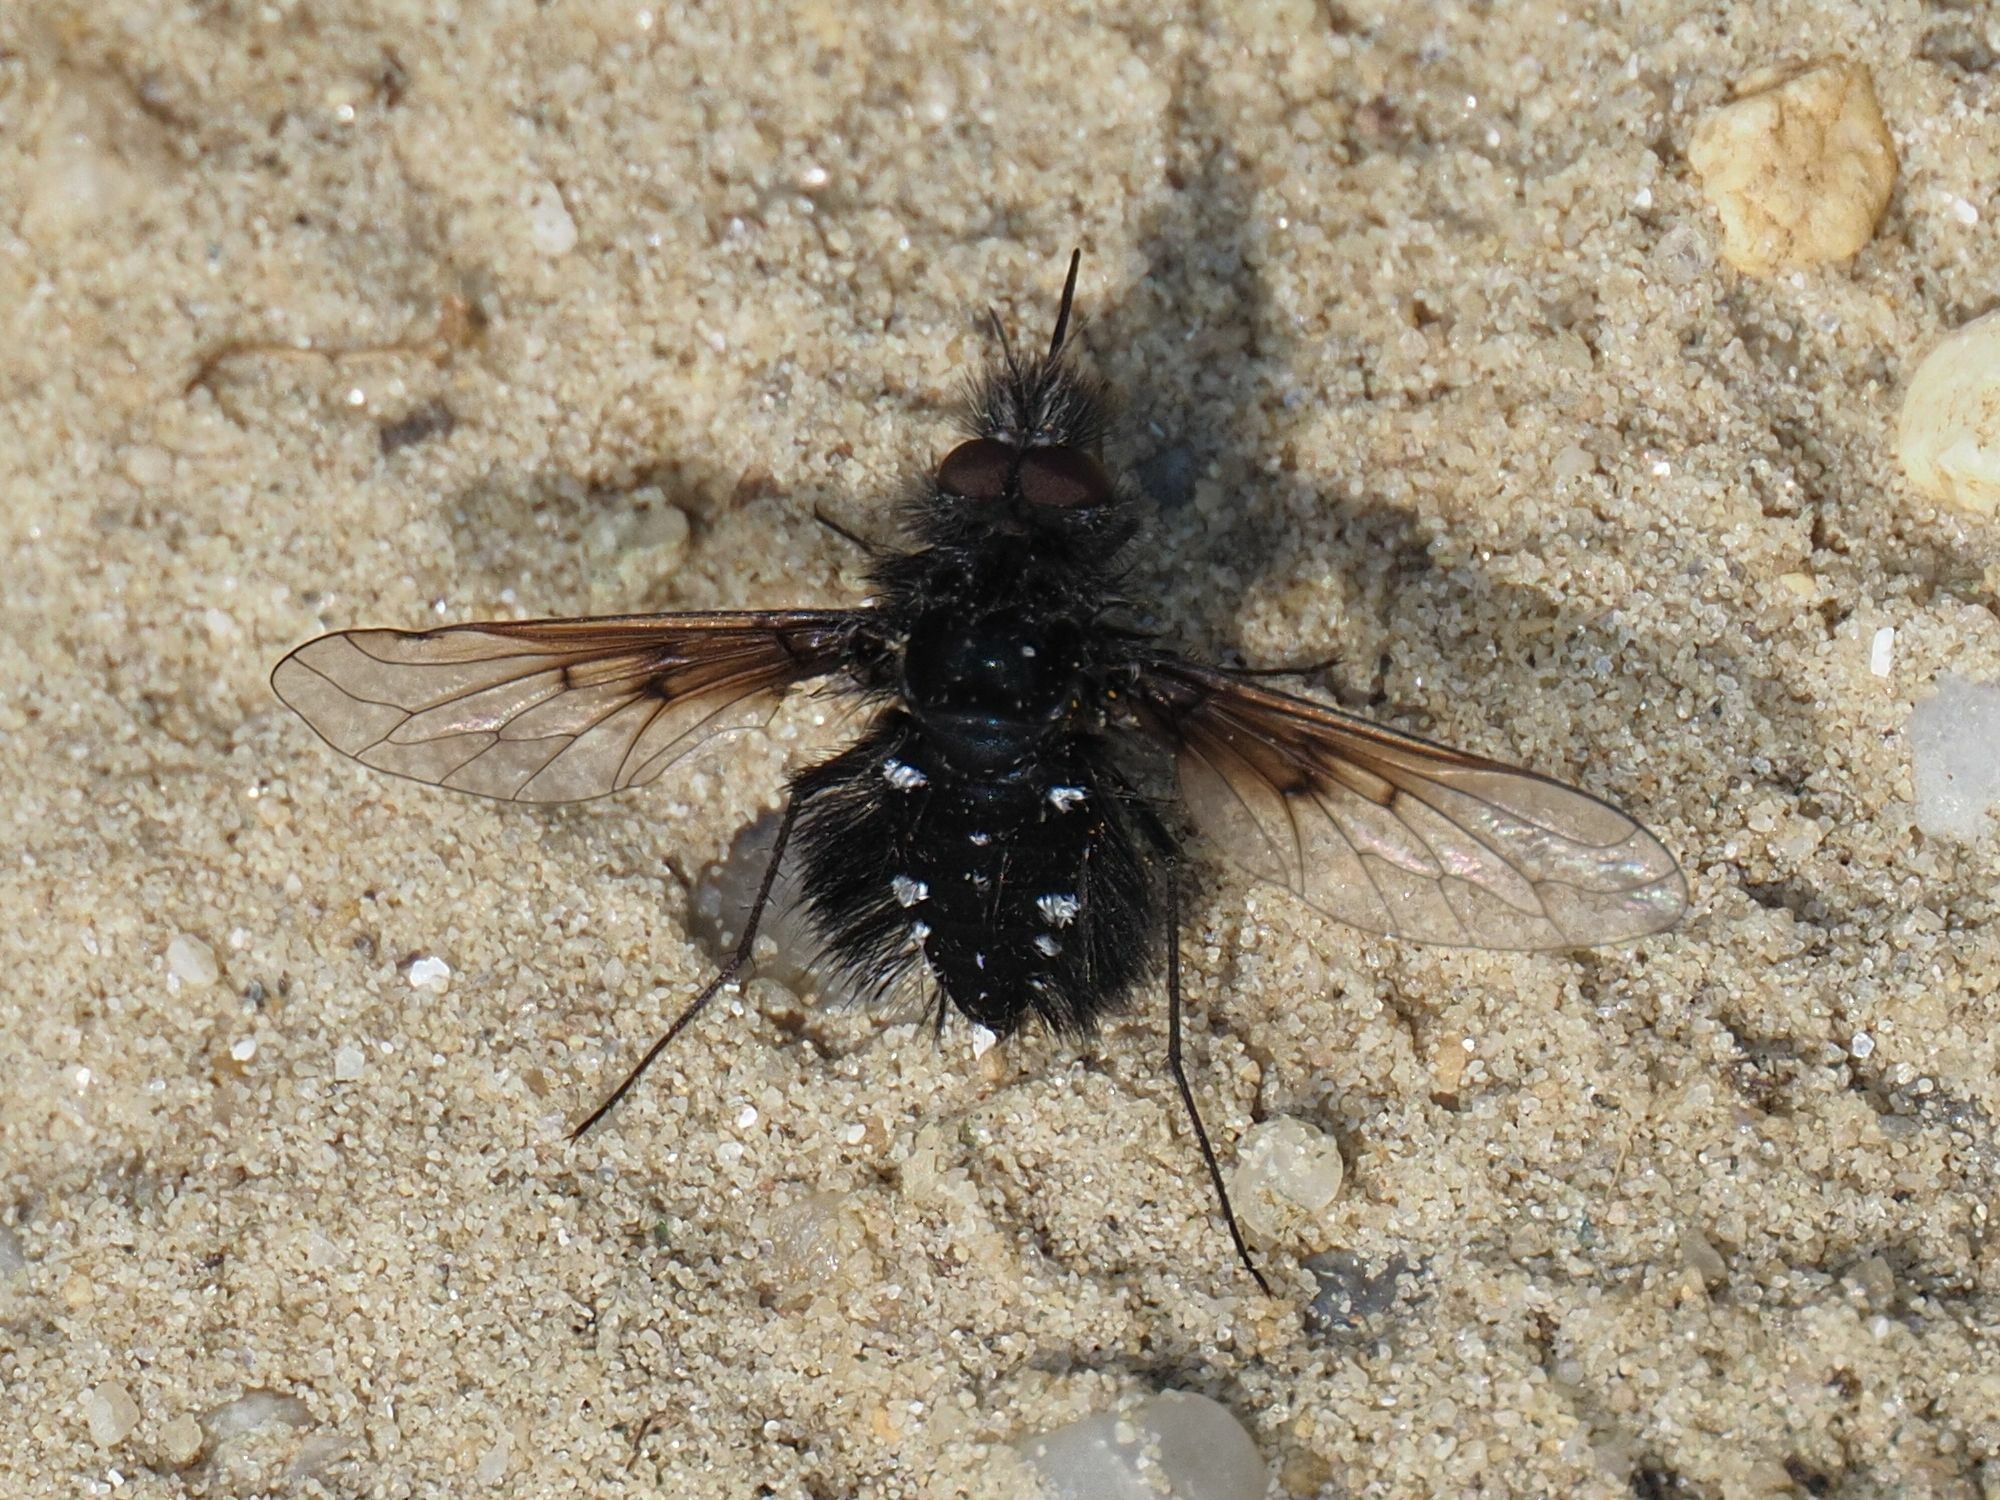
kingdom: Animalia
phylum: Arthropoda
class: Insecta
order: Diptera
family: Bombyliidae
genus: Bombylella
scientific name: Bombylella atra
